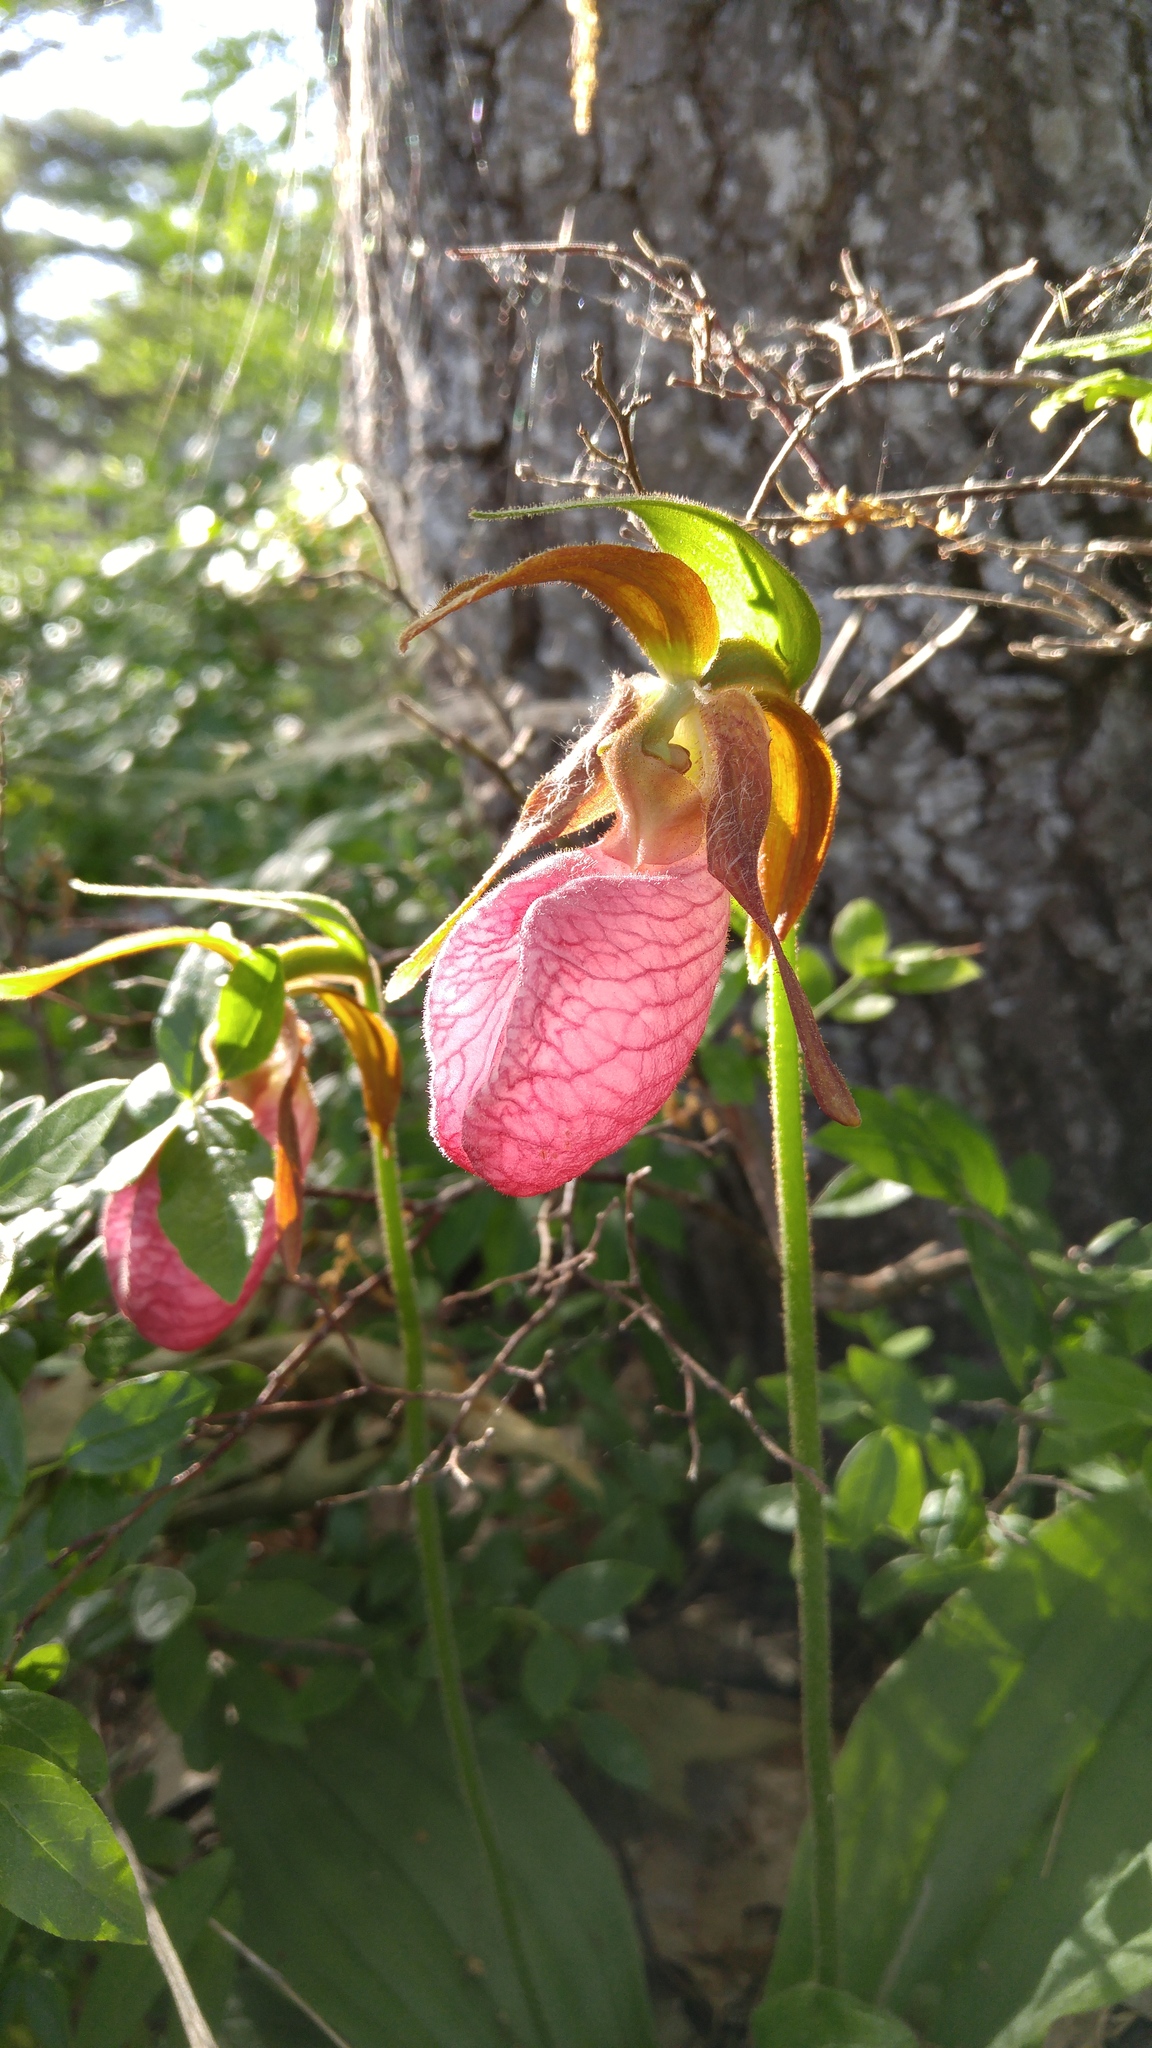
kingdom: Plantae
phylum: Tracheophyta
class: Liliopsida
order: Asparagales
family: Orchidaceae
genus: Cypripedium
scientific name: Cypripedium acaule
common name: Pink lady's-slipper
